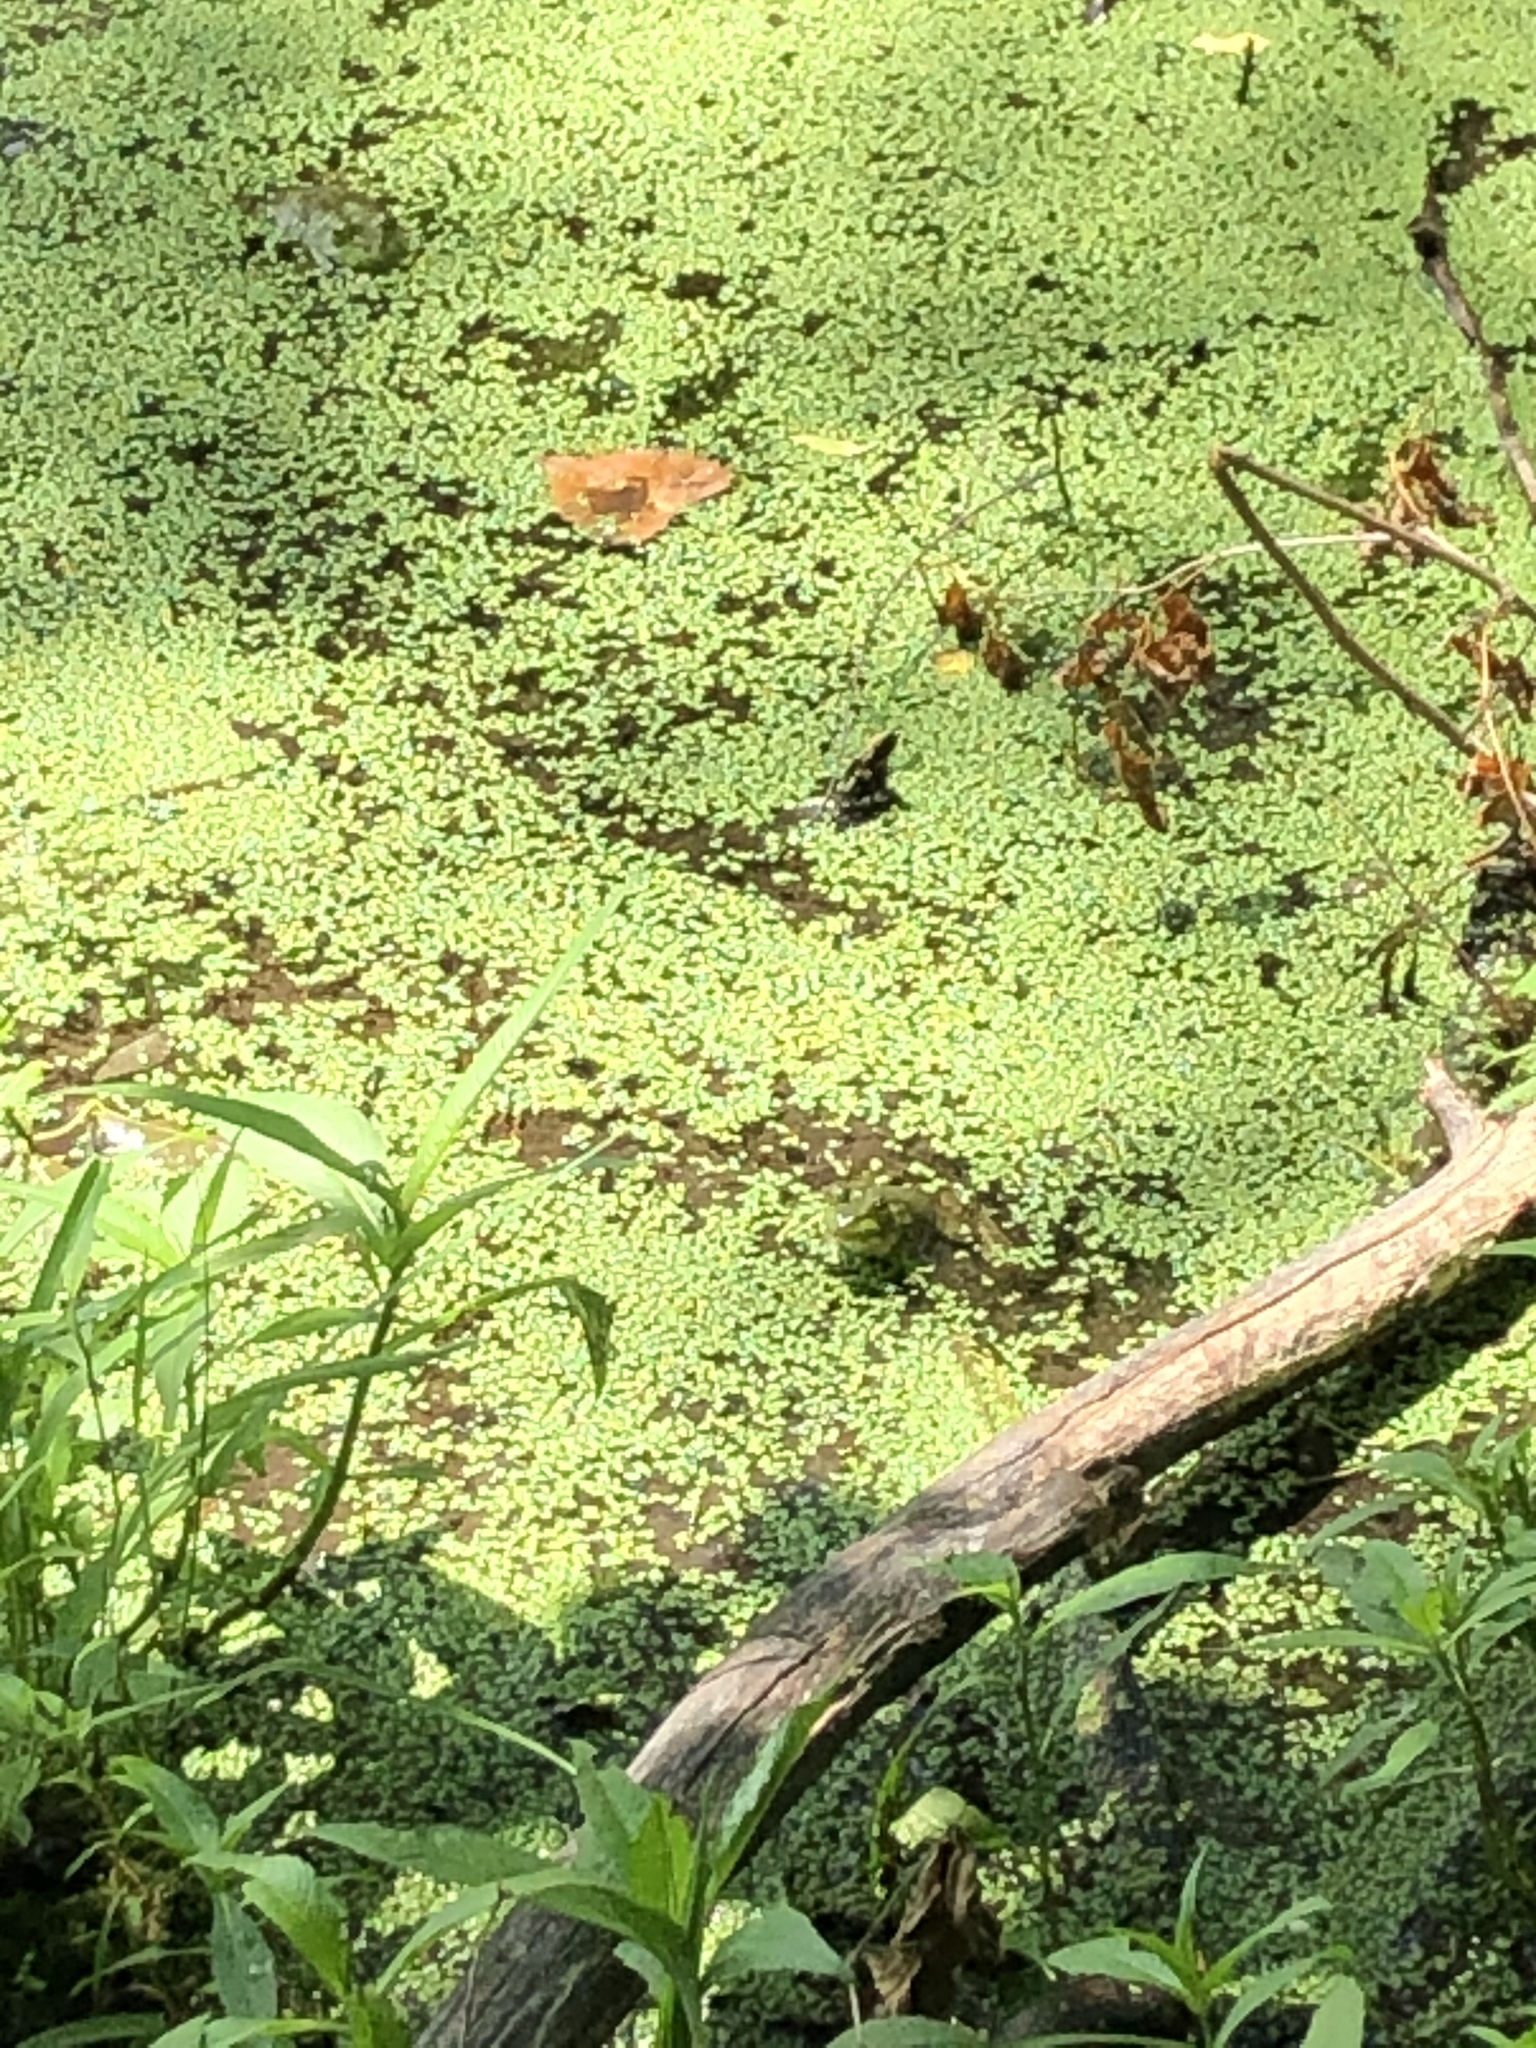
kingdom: Animalia
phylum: Chordata
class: Amphibia
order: Anura
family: Ranidae
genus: Lithobates
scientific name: Lithobates catesbeianus
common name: American bullfrog
